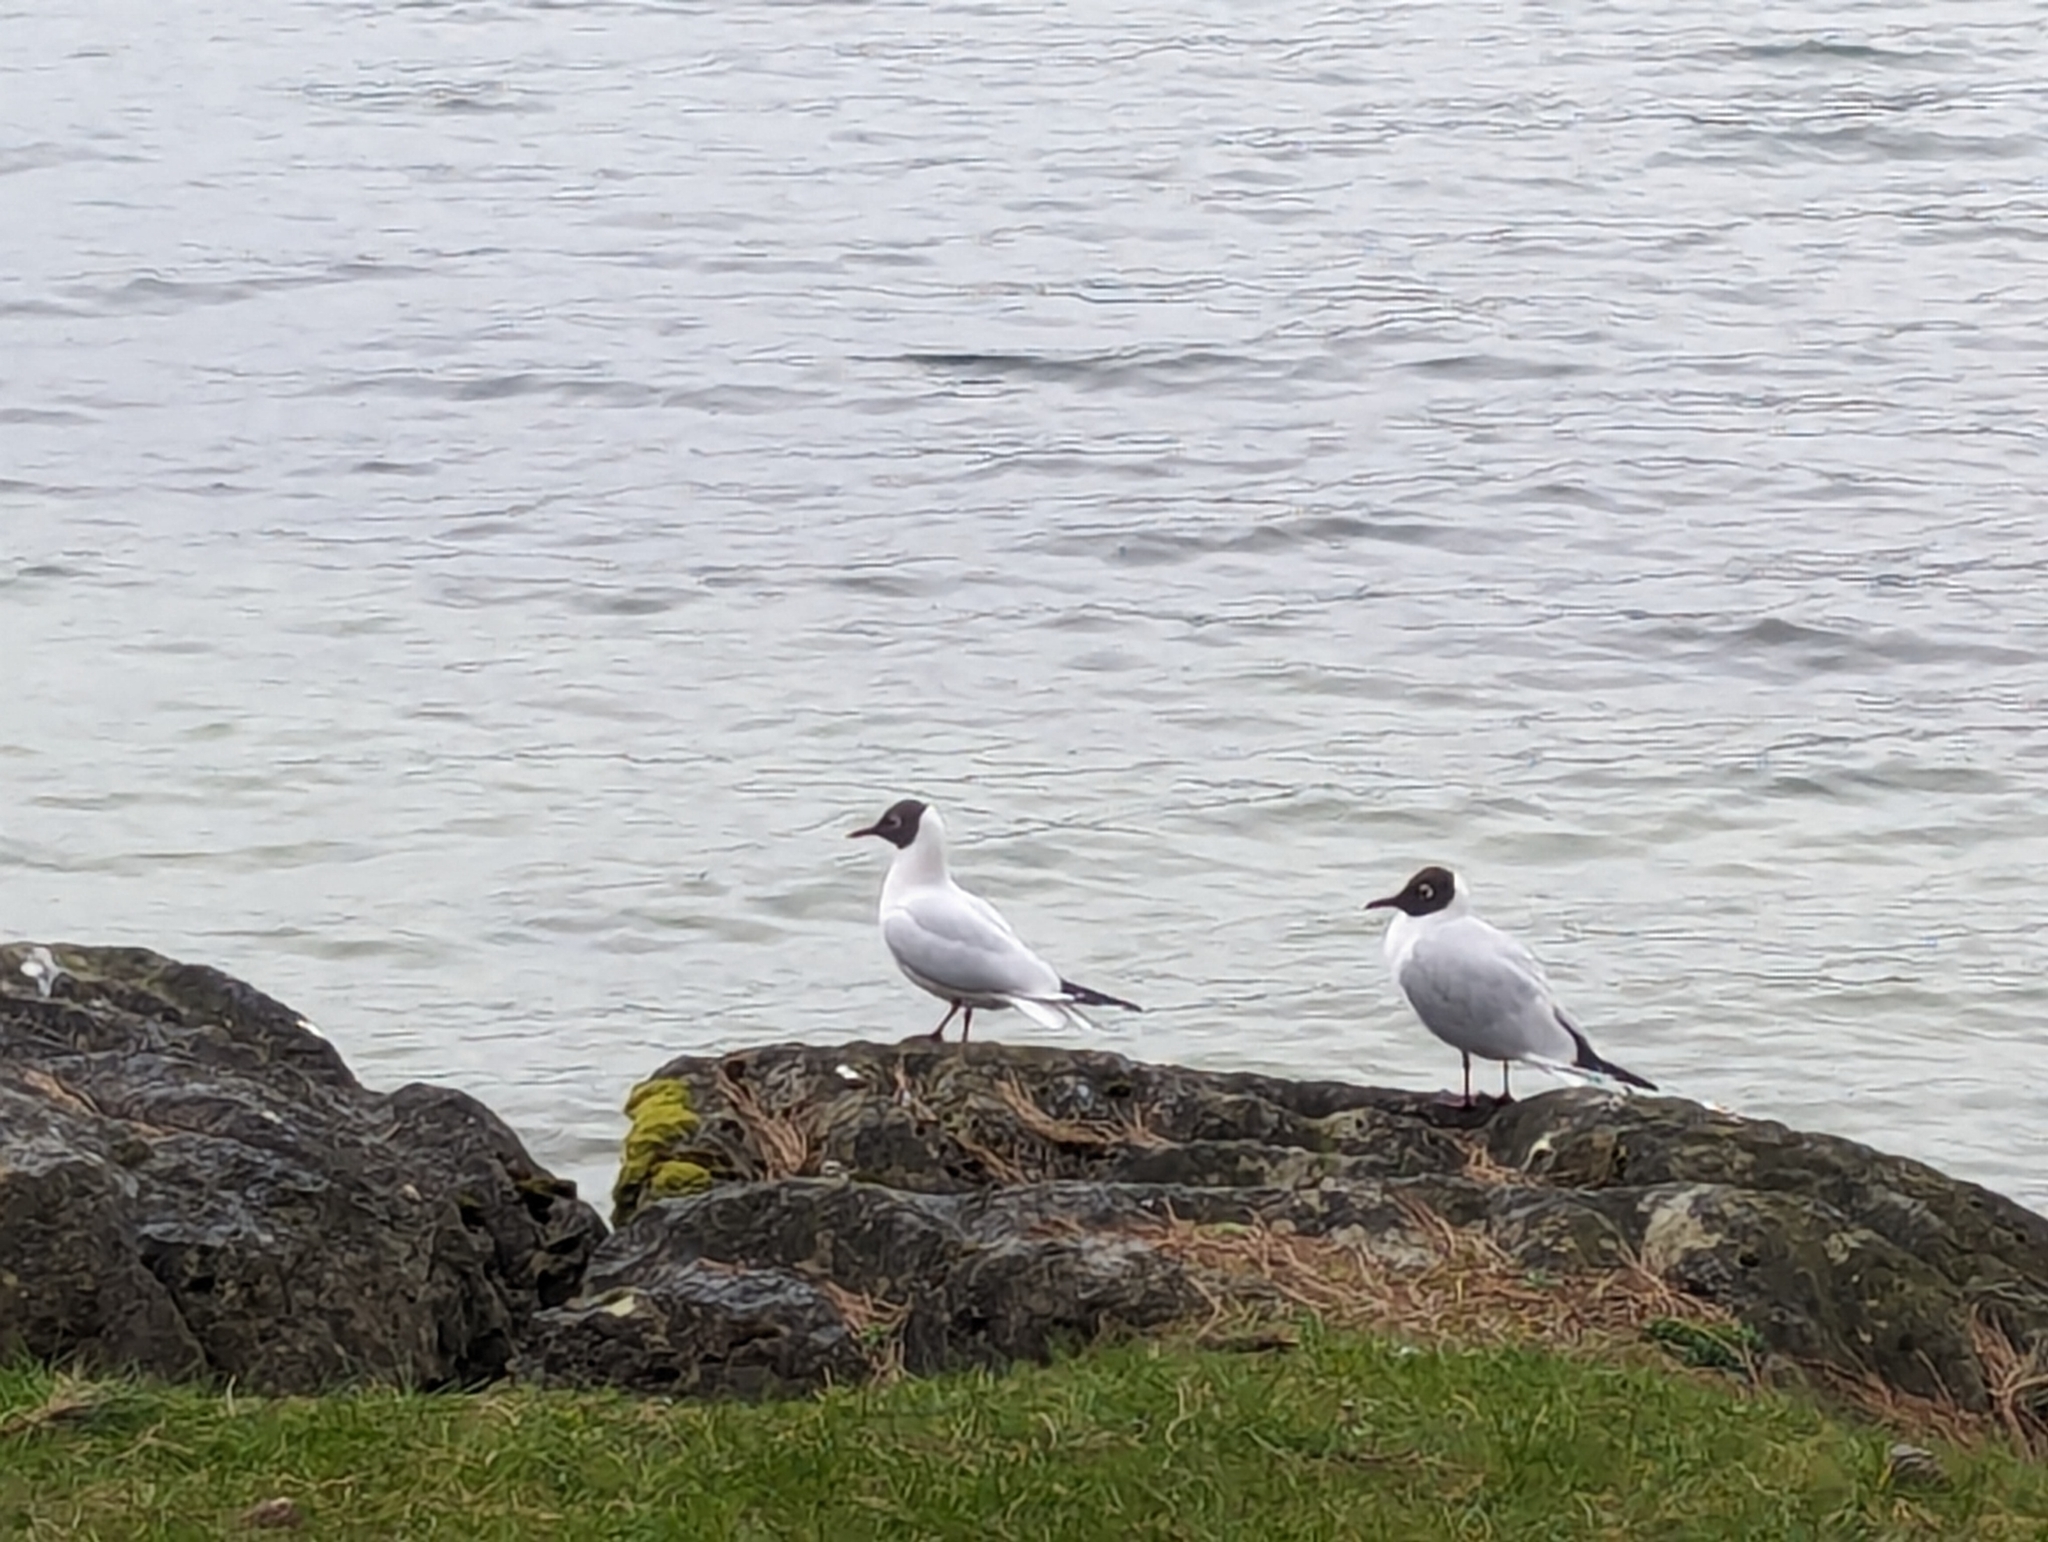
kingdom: Animalia
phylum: Chordata
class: Aves
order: Charadriiformes
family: Laridae
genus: Chroicocephalus
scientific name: Chroicocephalus ridibundus
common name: Black-headed gull
